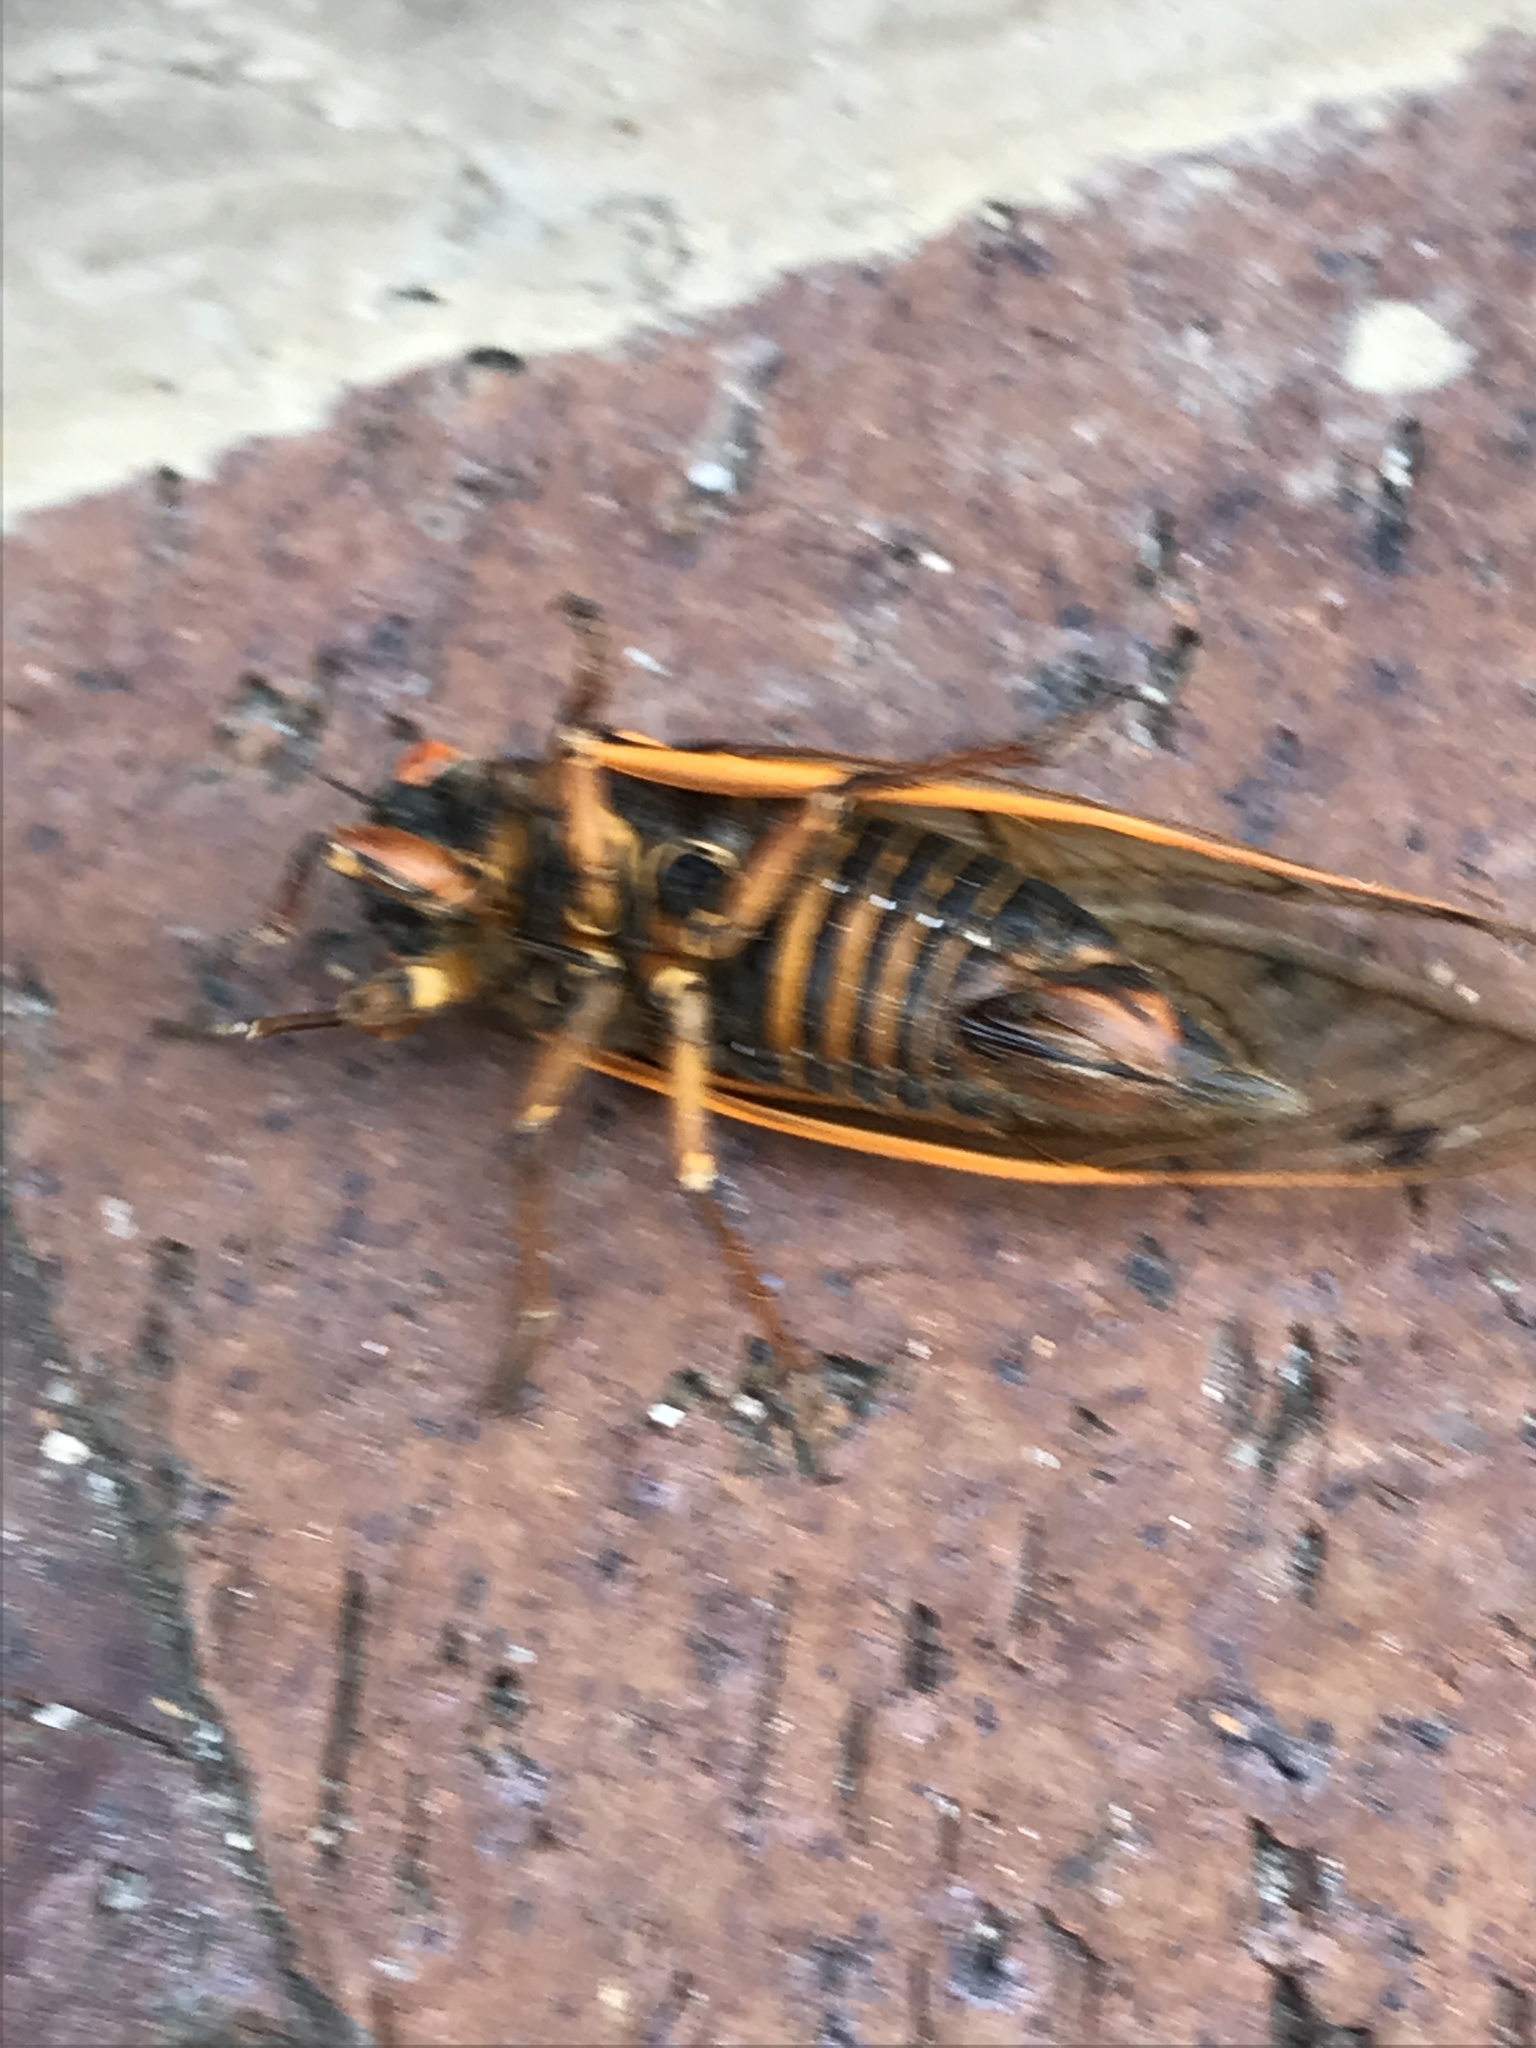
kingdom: Animalia
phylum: Arthropoda
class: Insecta
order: Hemiptera
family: Cicadidae
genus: Magicicada
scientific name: Magicicada septendecim
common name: Periodical cicada
